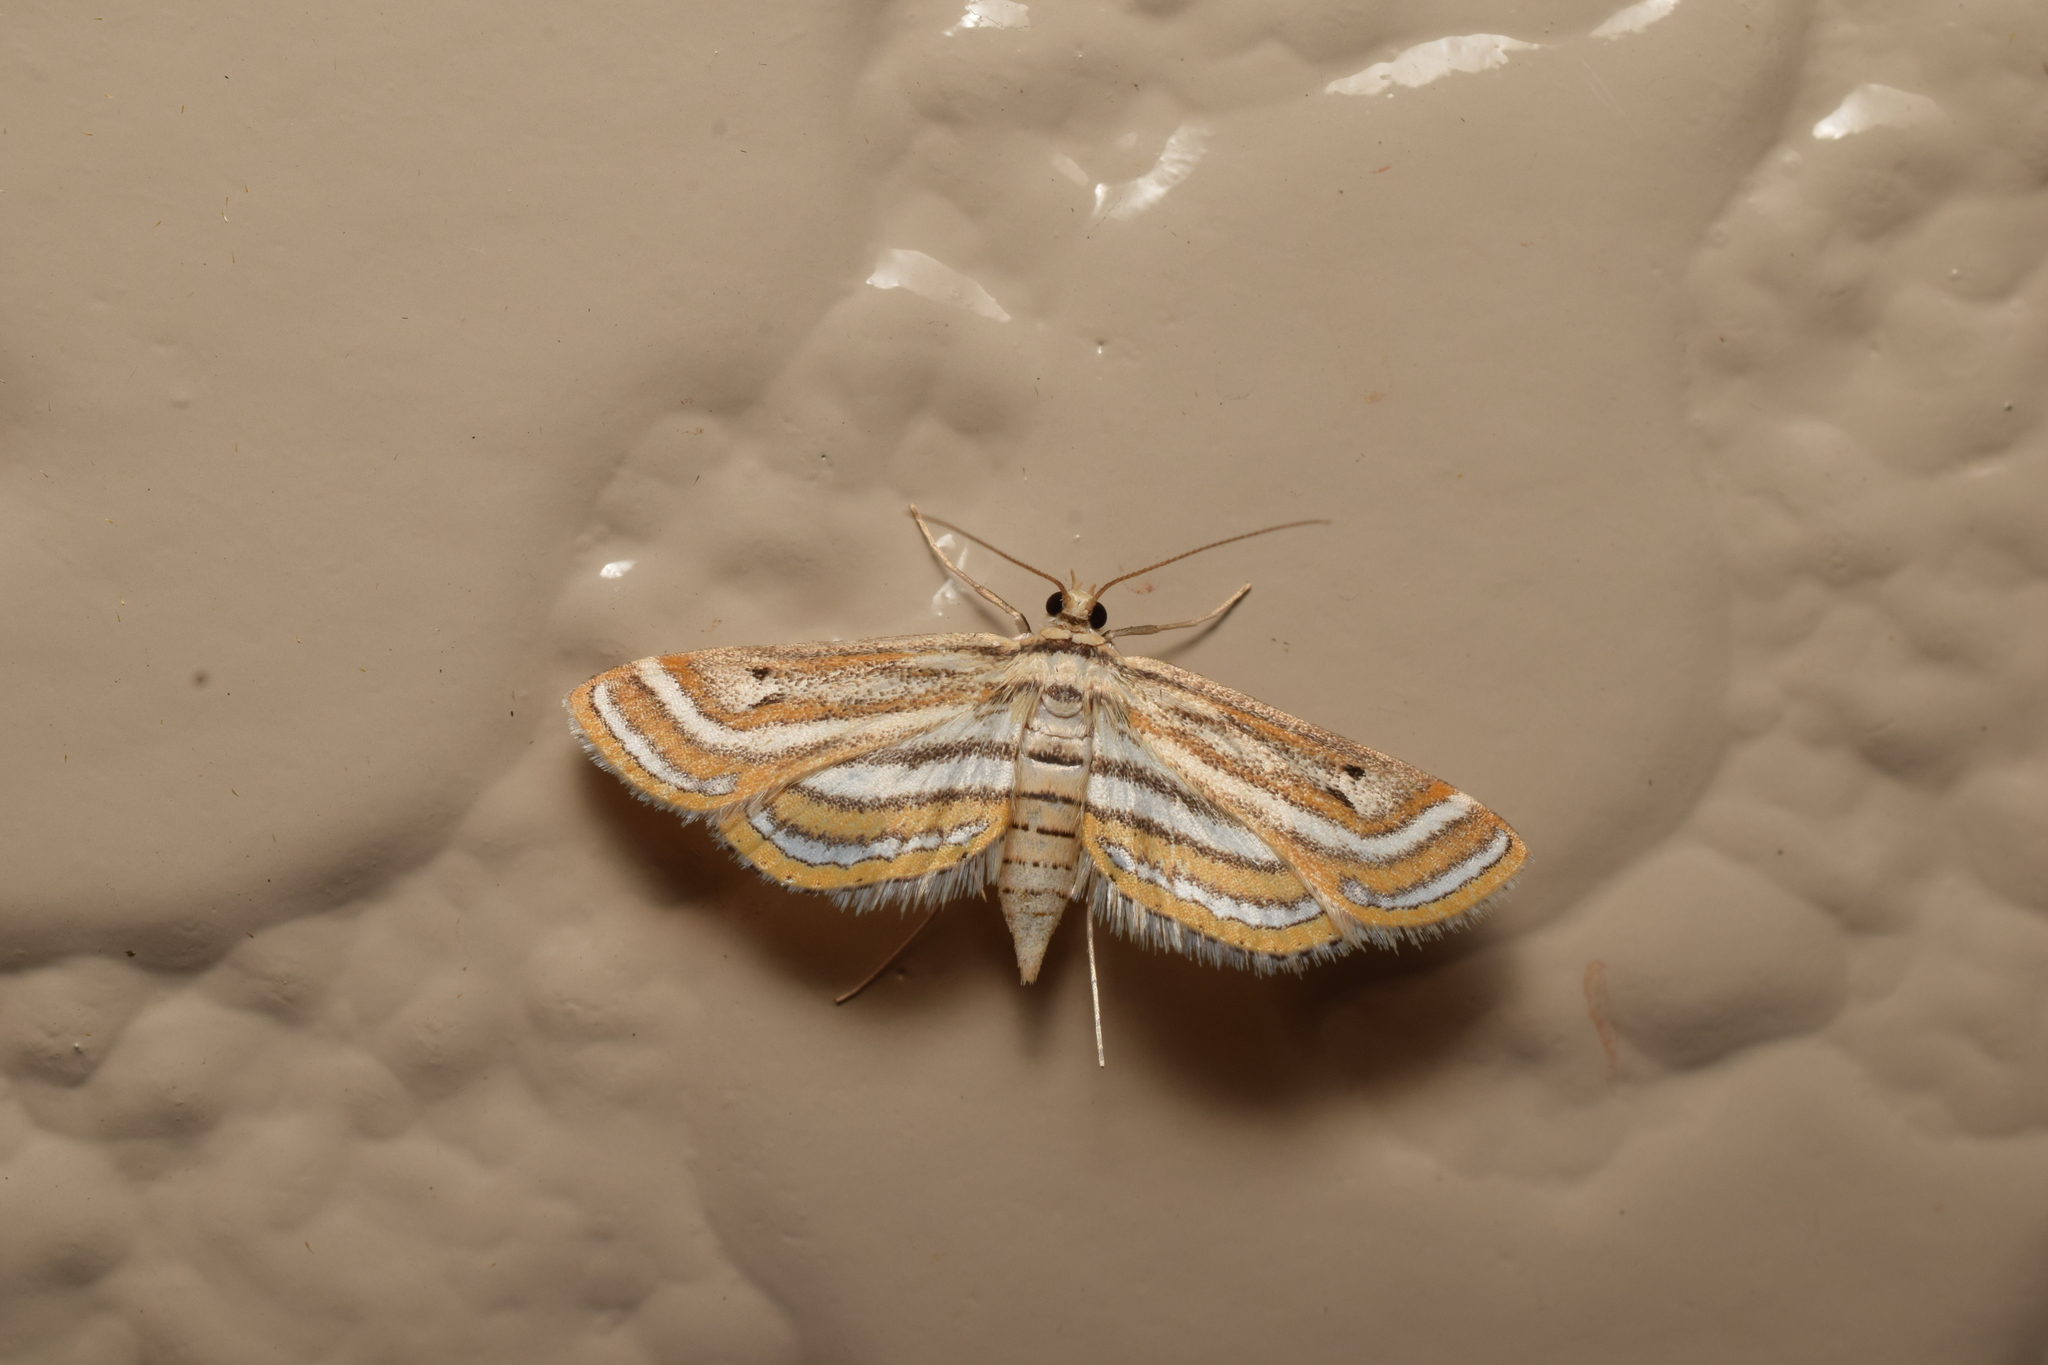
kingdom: Animalia
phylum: Arthropoda
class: Insecta
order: Lepidoptera
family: Crambidae
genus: Parapoynx
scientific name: Parapoynx vittalis
